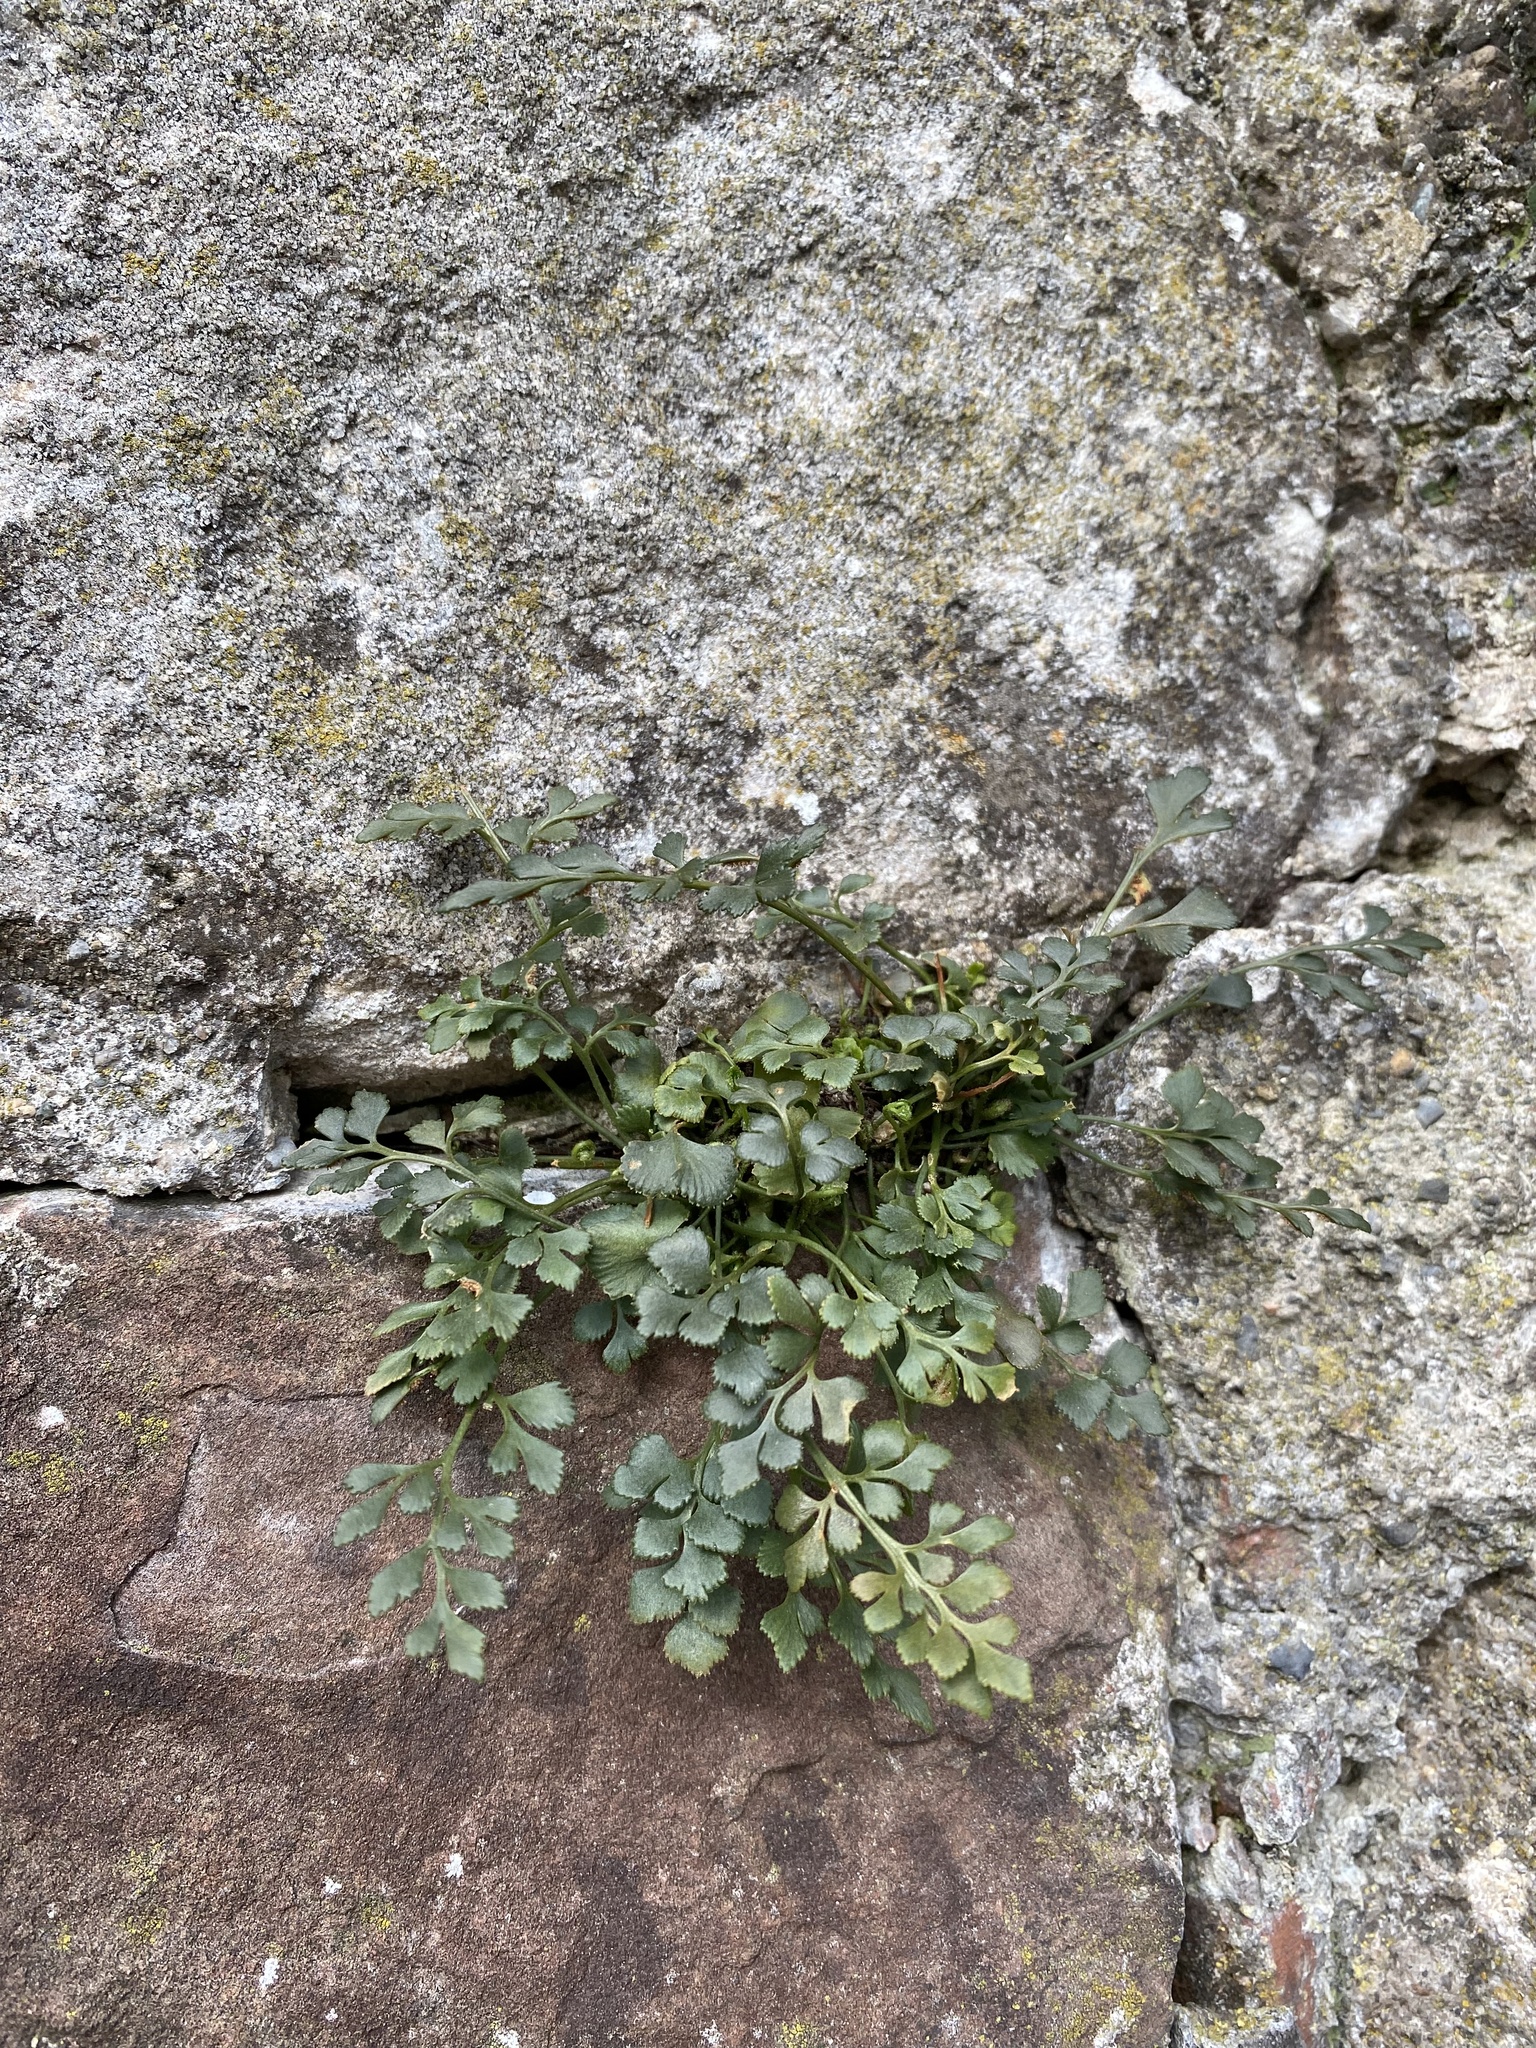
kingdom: Plantae
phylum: Tracheophyta
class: Polypodiopsida
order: Polypodiales
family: Aspleniaceae
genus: Asplenium
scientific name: Asplenium ruta-muraria
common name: Wall-rue
